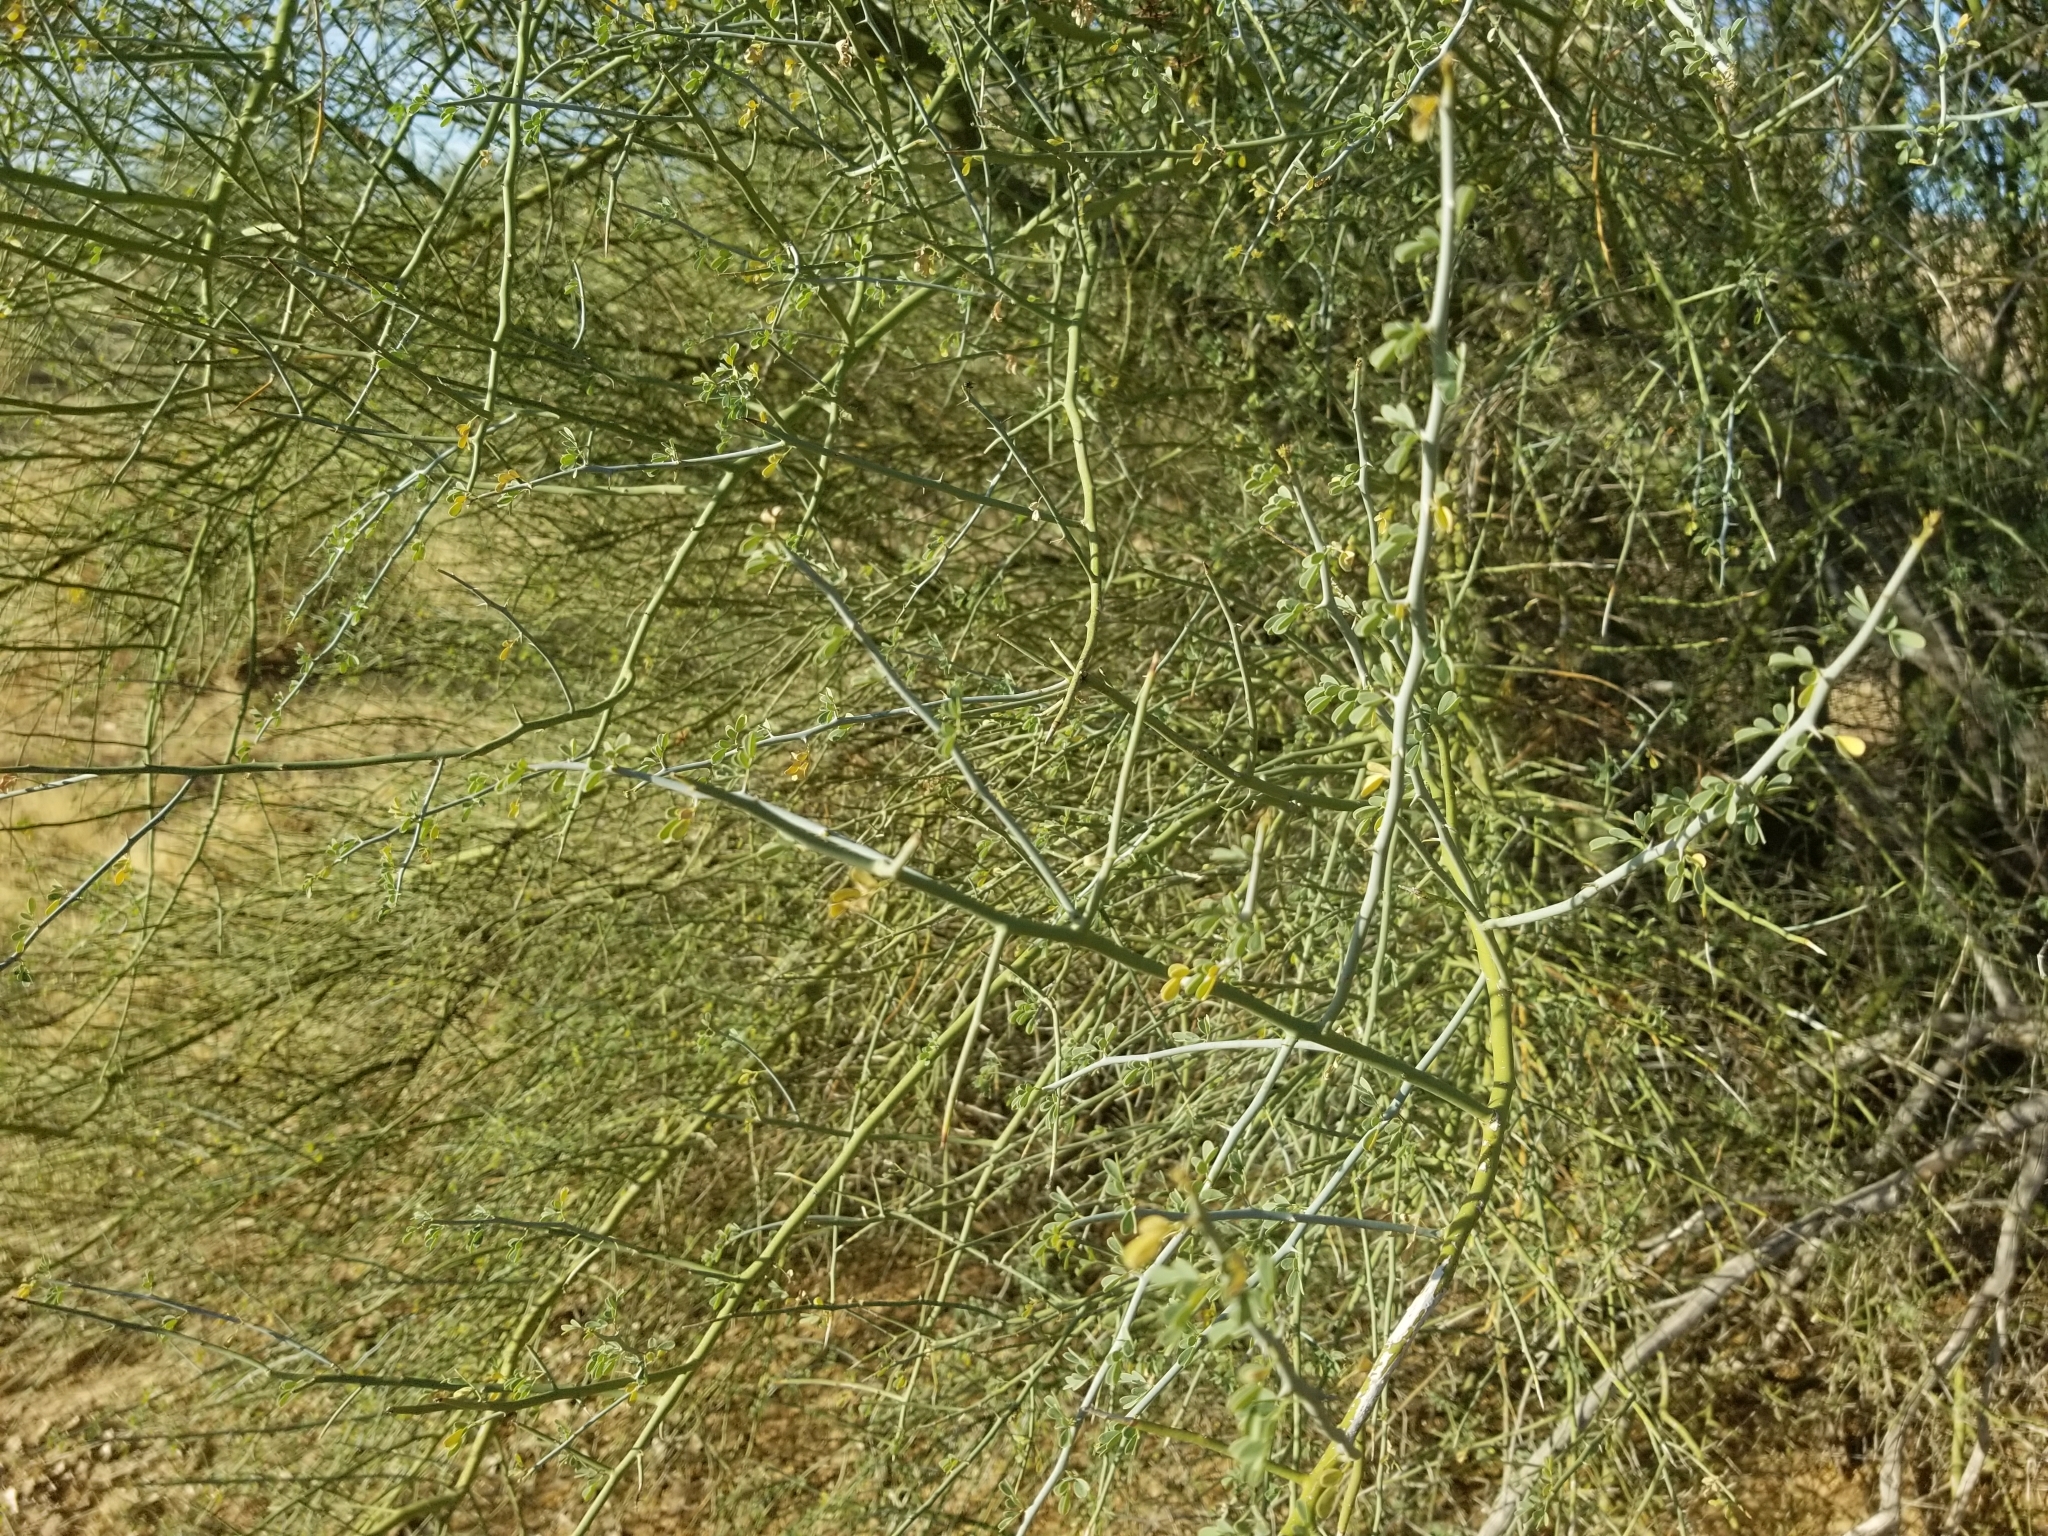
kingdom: Plantae
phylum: Tracheophyta
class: Magnoliopsida
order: Fabales
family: Fabaceae
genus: Parkinsonia
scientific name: Parkinsonia florida
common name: Blue paloverde
